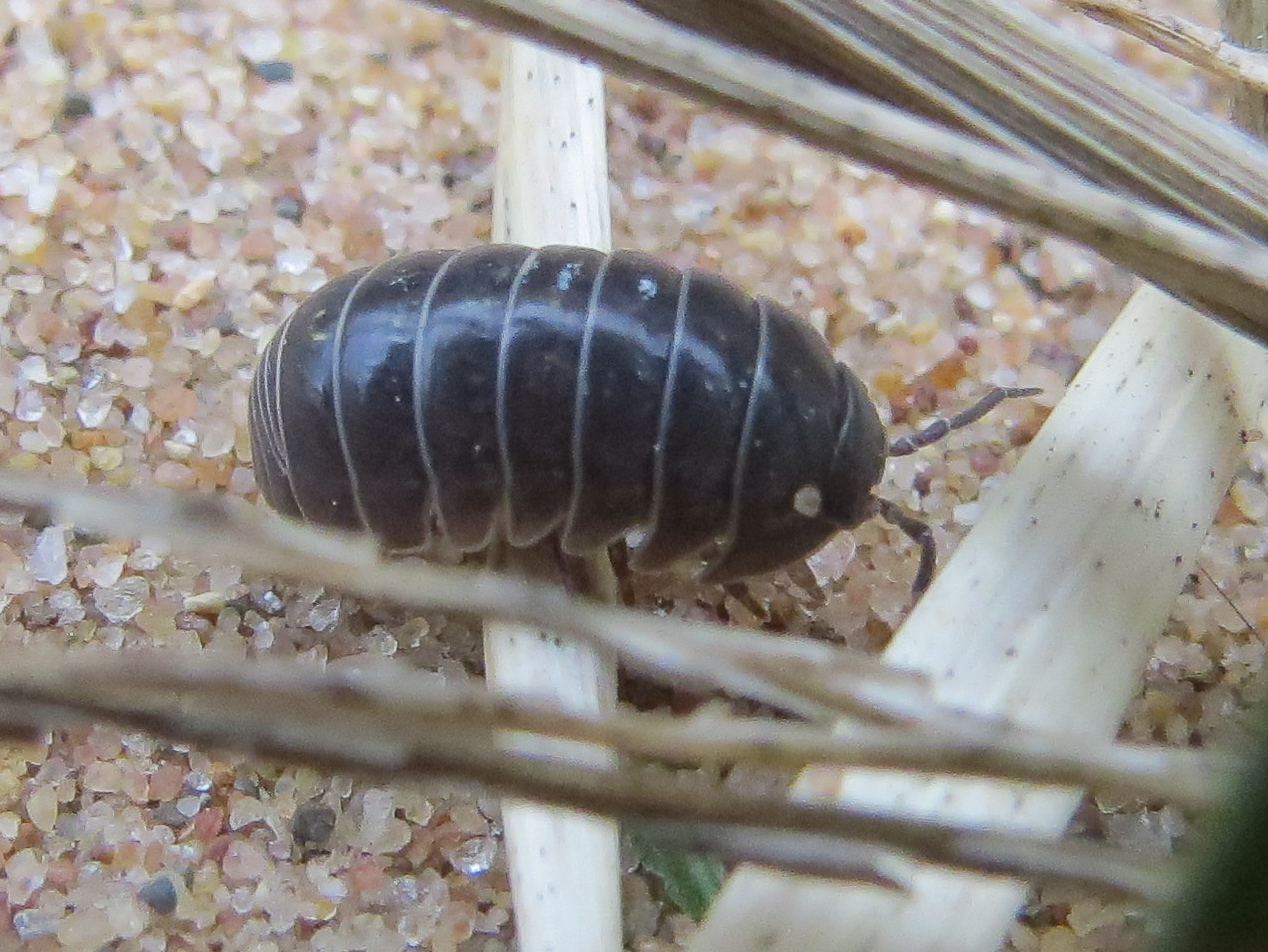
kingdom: Animalia
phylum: Arthropoda
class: Malacostraca
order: Isopoda
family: Armadillidiidae
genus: Armadillidium
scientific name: Armadillidium vulgare
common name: Common pill woodlouse
